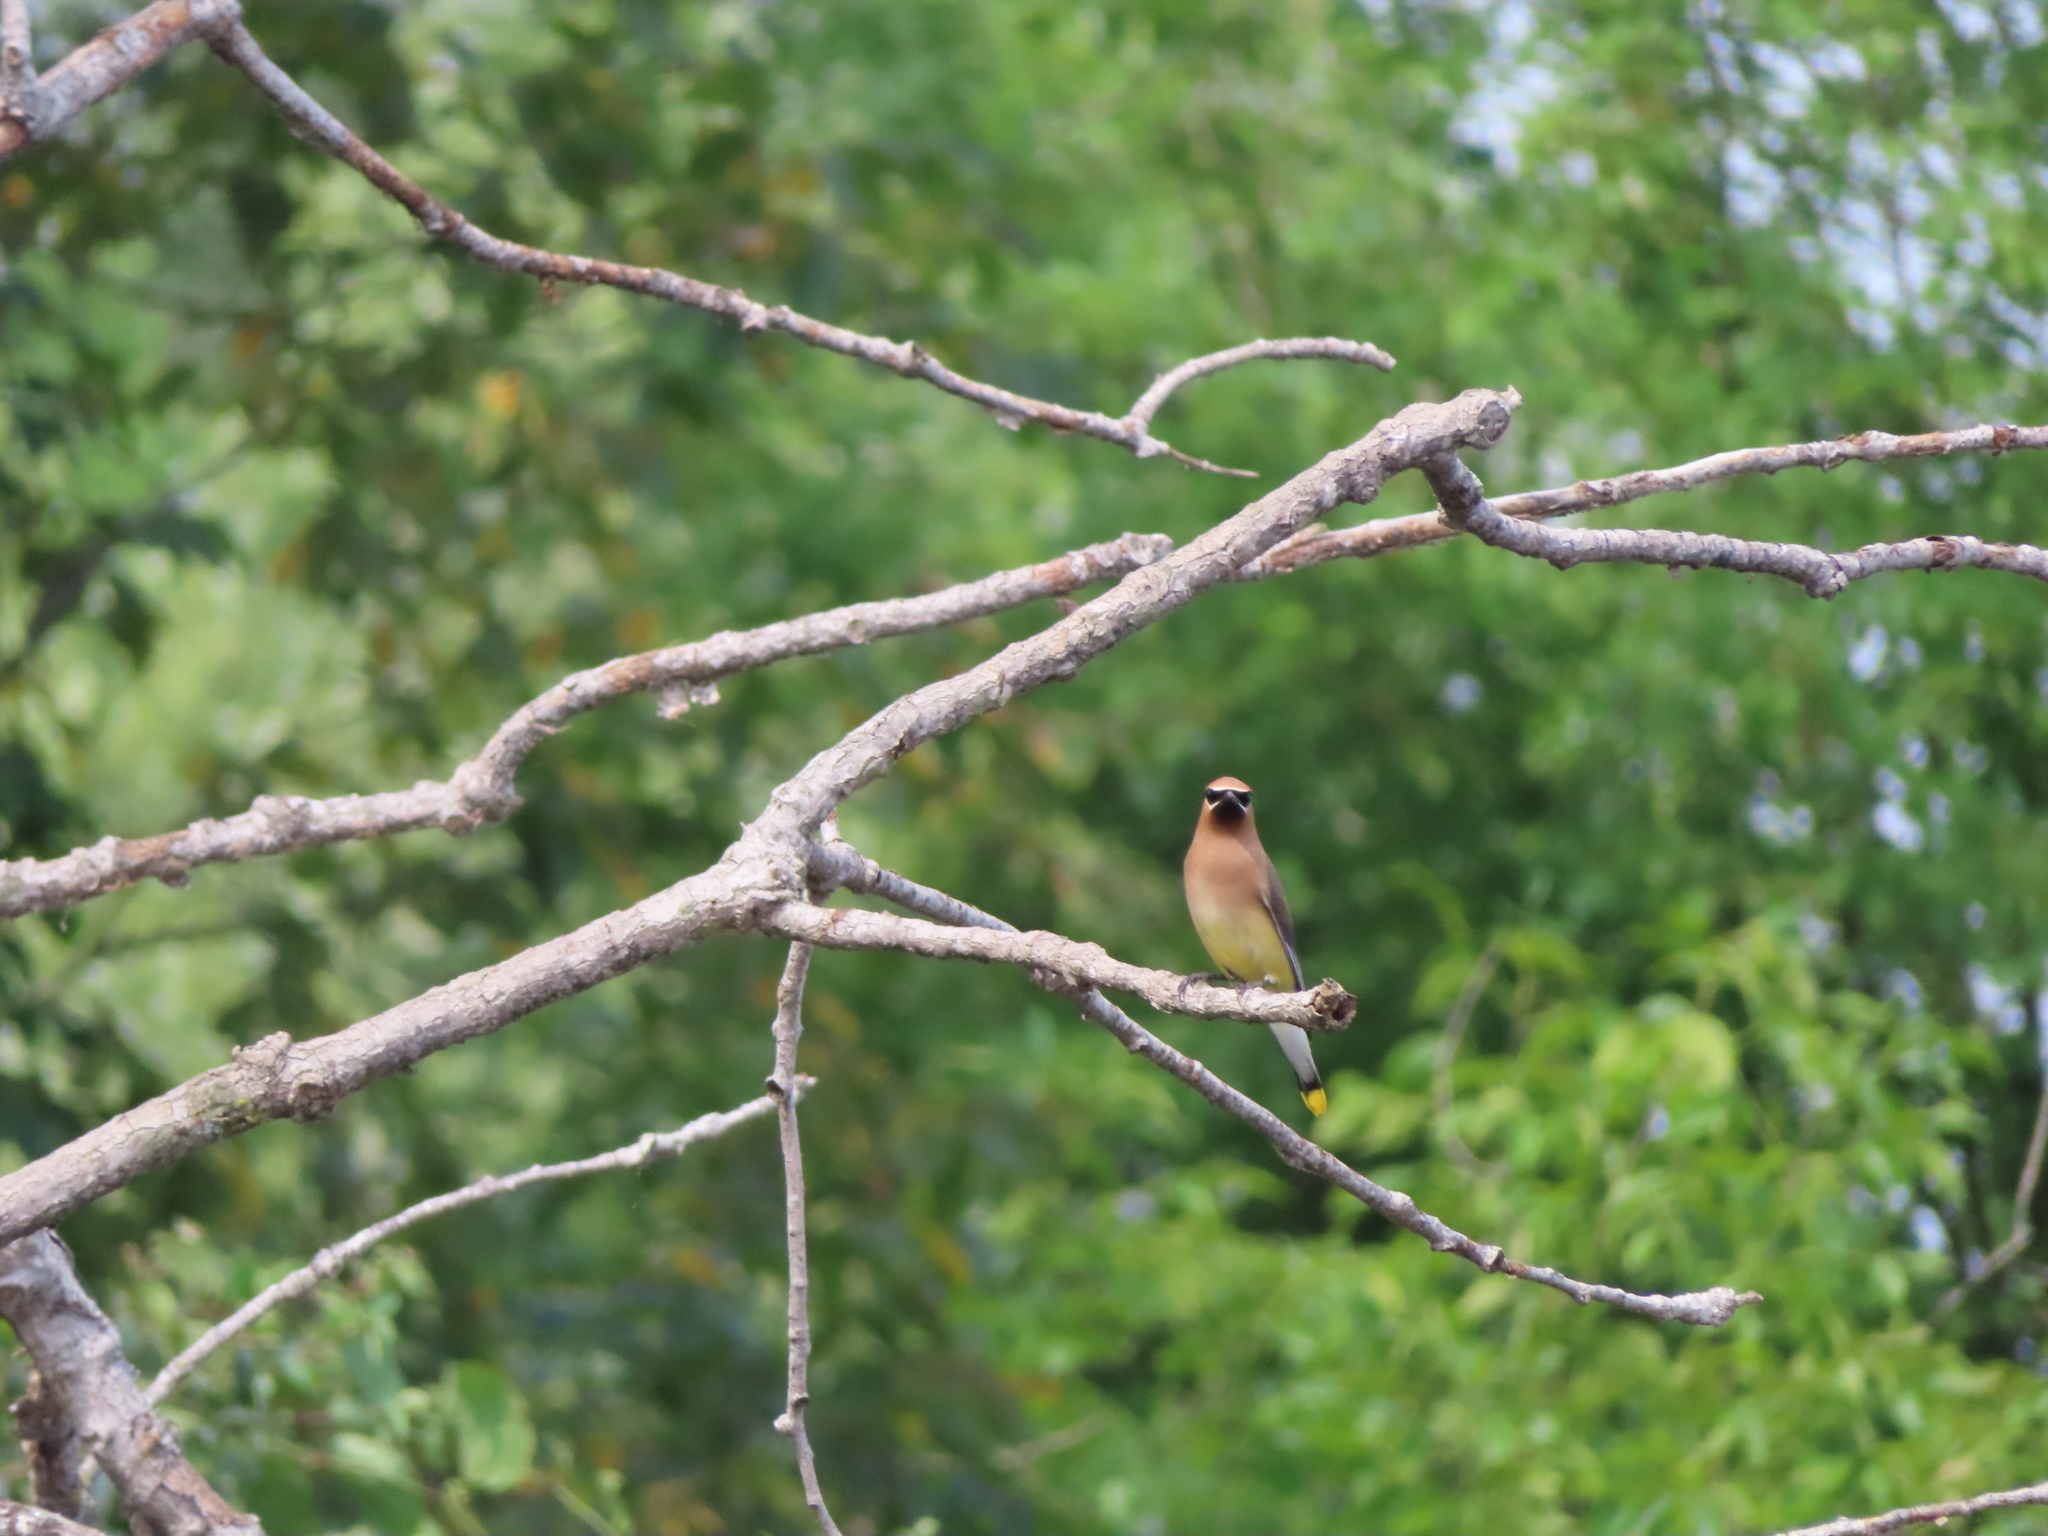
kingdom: Animalia
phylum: Chordata
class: Aves
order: Passeriformes
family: Bombycillidae
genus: Bombycilla
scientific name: Bombycilla cedrorum
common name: Cedar waxwing
